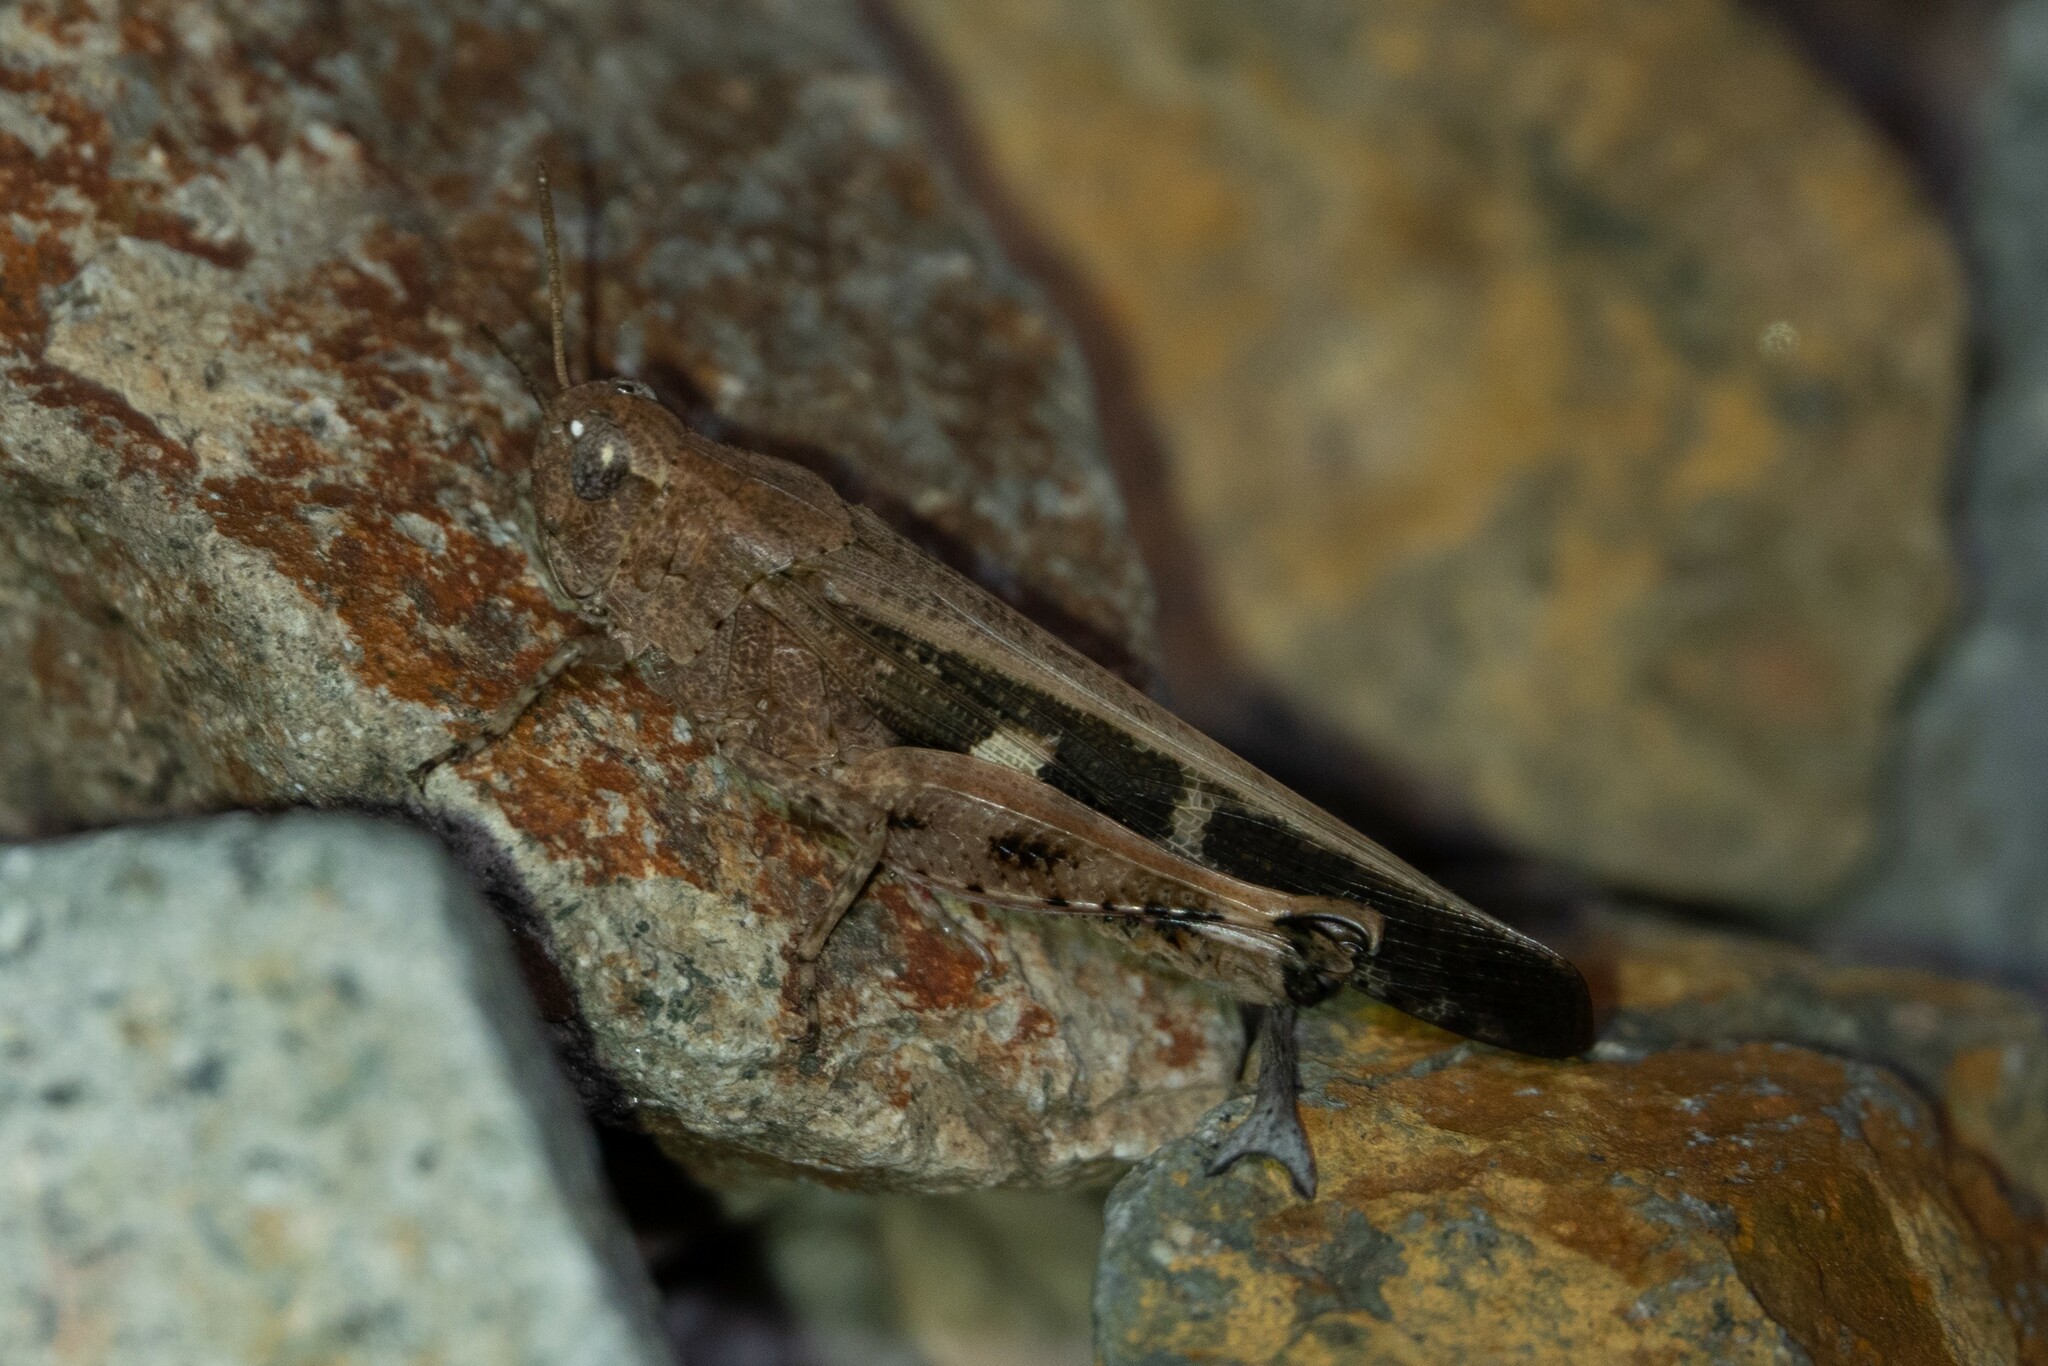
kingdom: Animalia
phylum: Arthropoda
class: Insecta
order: Orthoptera
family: Acrididae
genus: Aiolopus
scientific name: Aiolopus strepens
